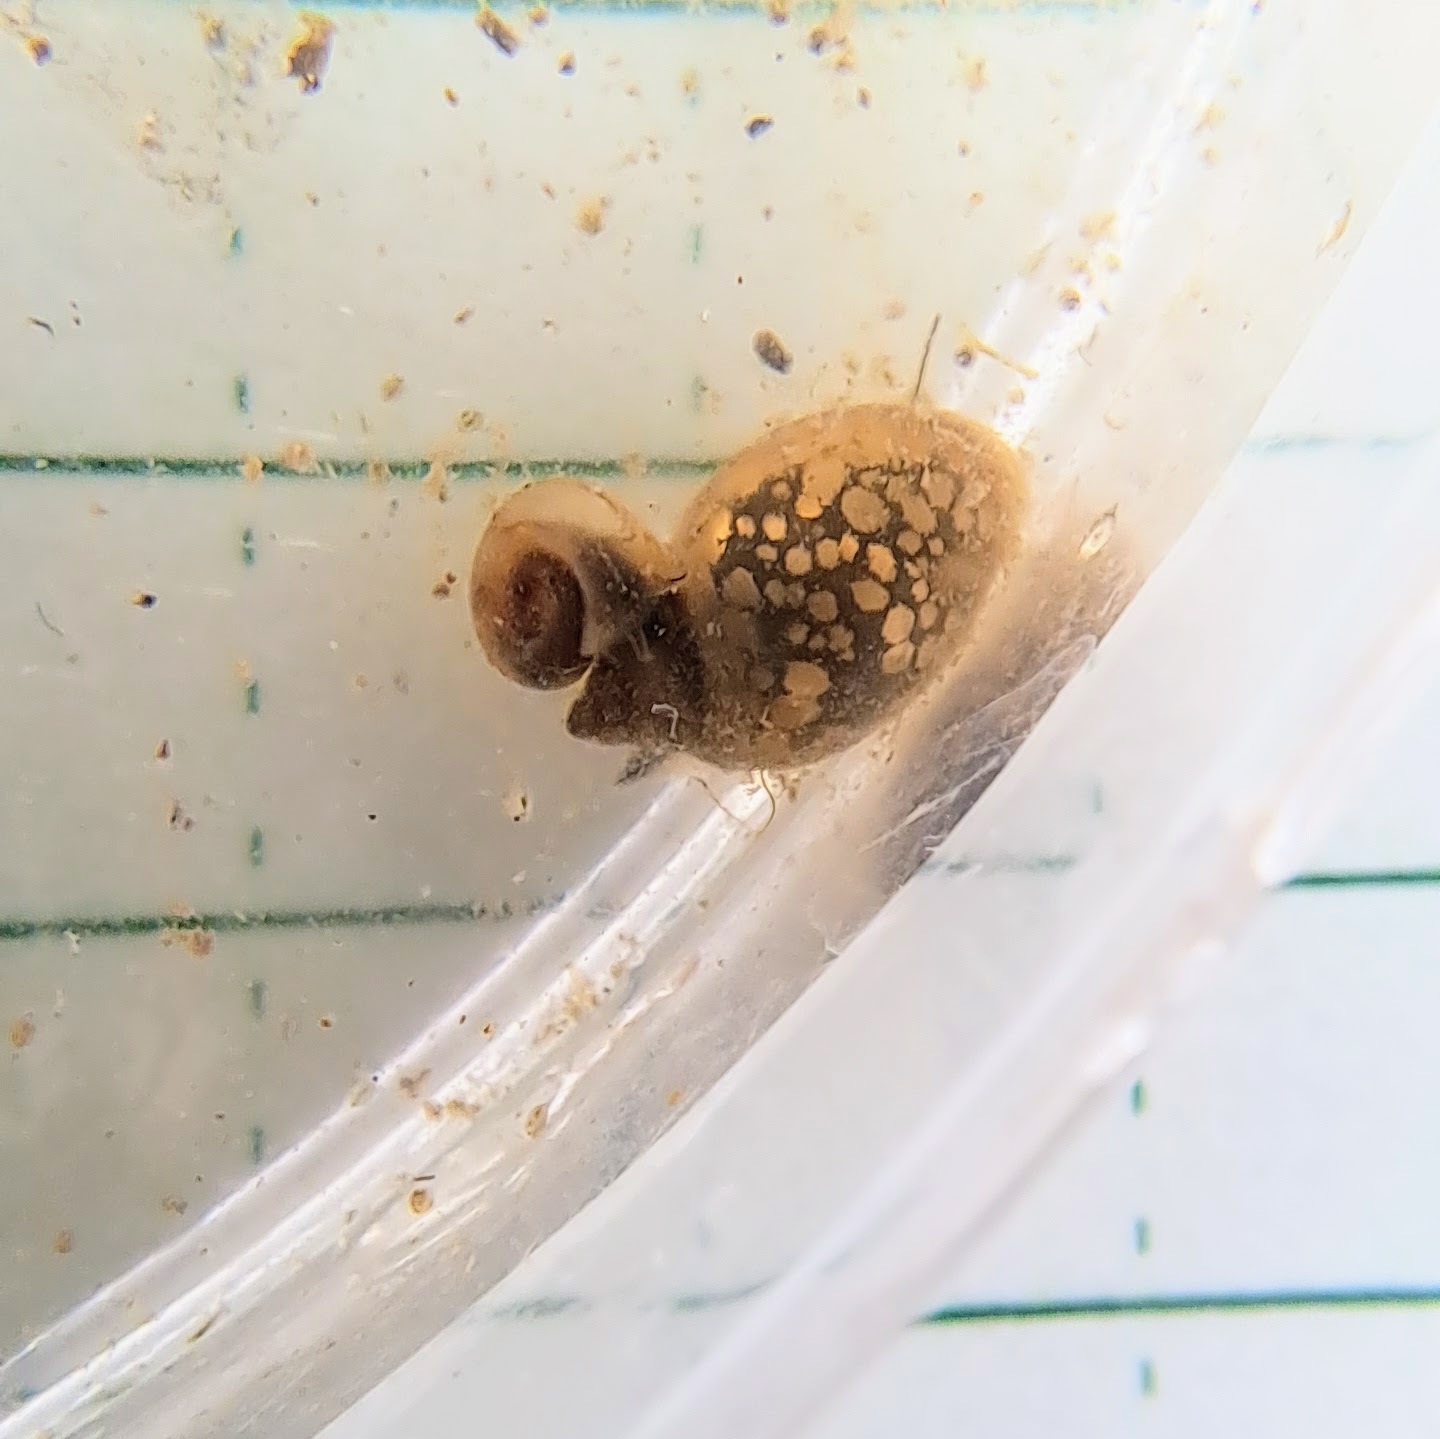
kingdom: Animalia
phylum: Mollusca
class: Gastropoda
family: Physidae
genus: Physella
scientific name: Physella
